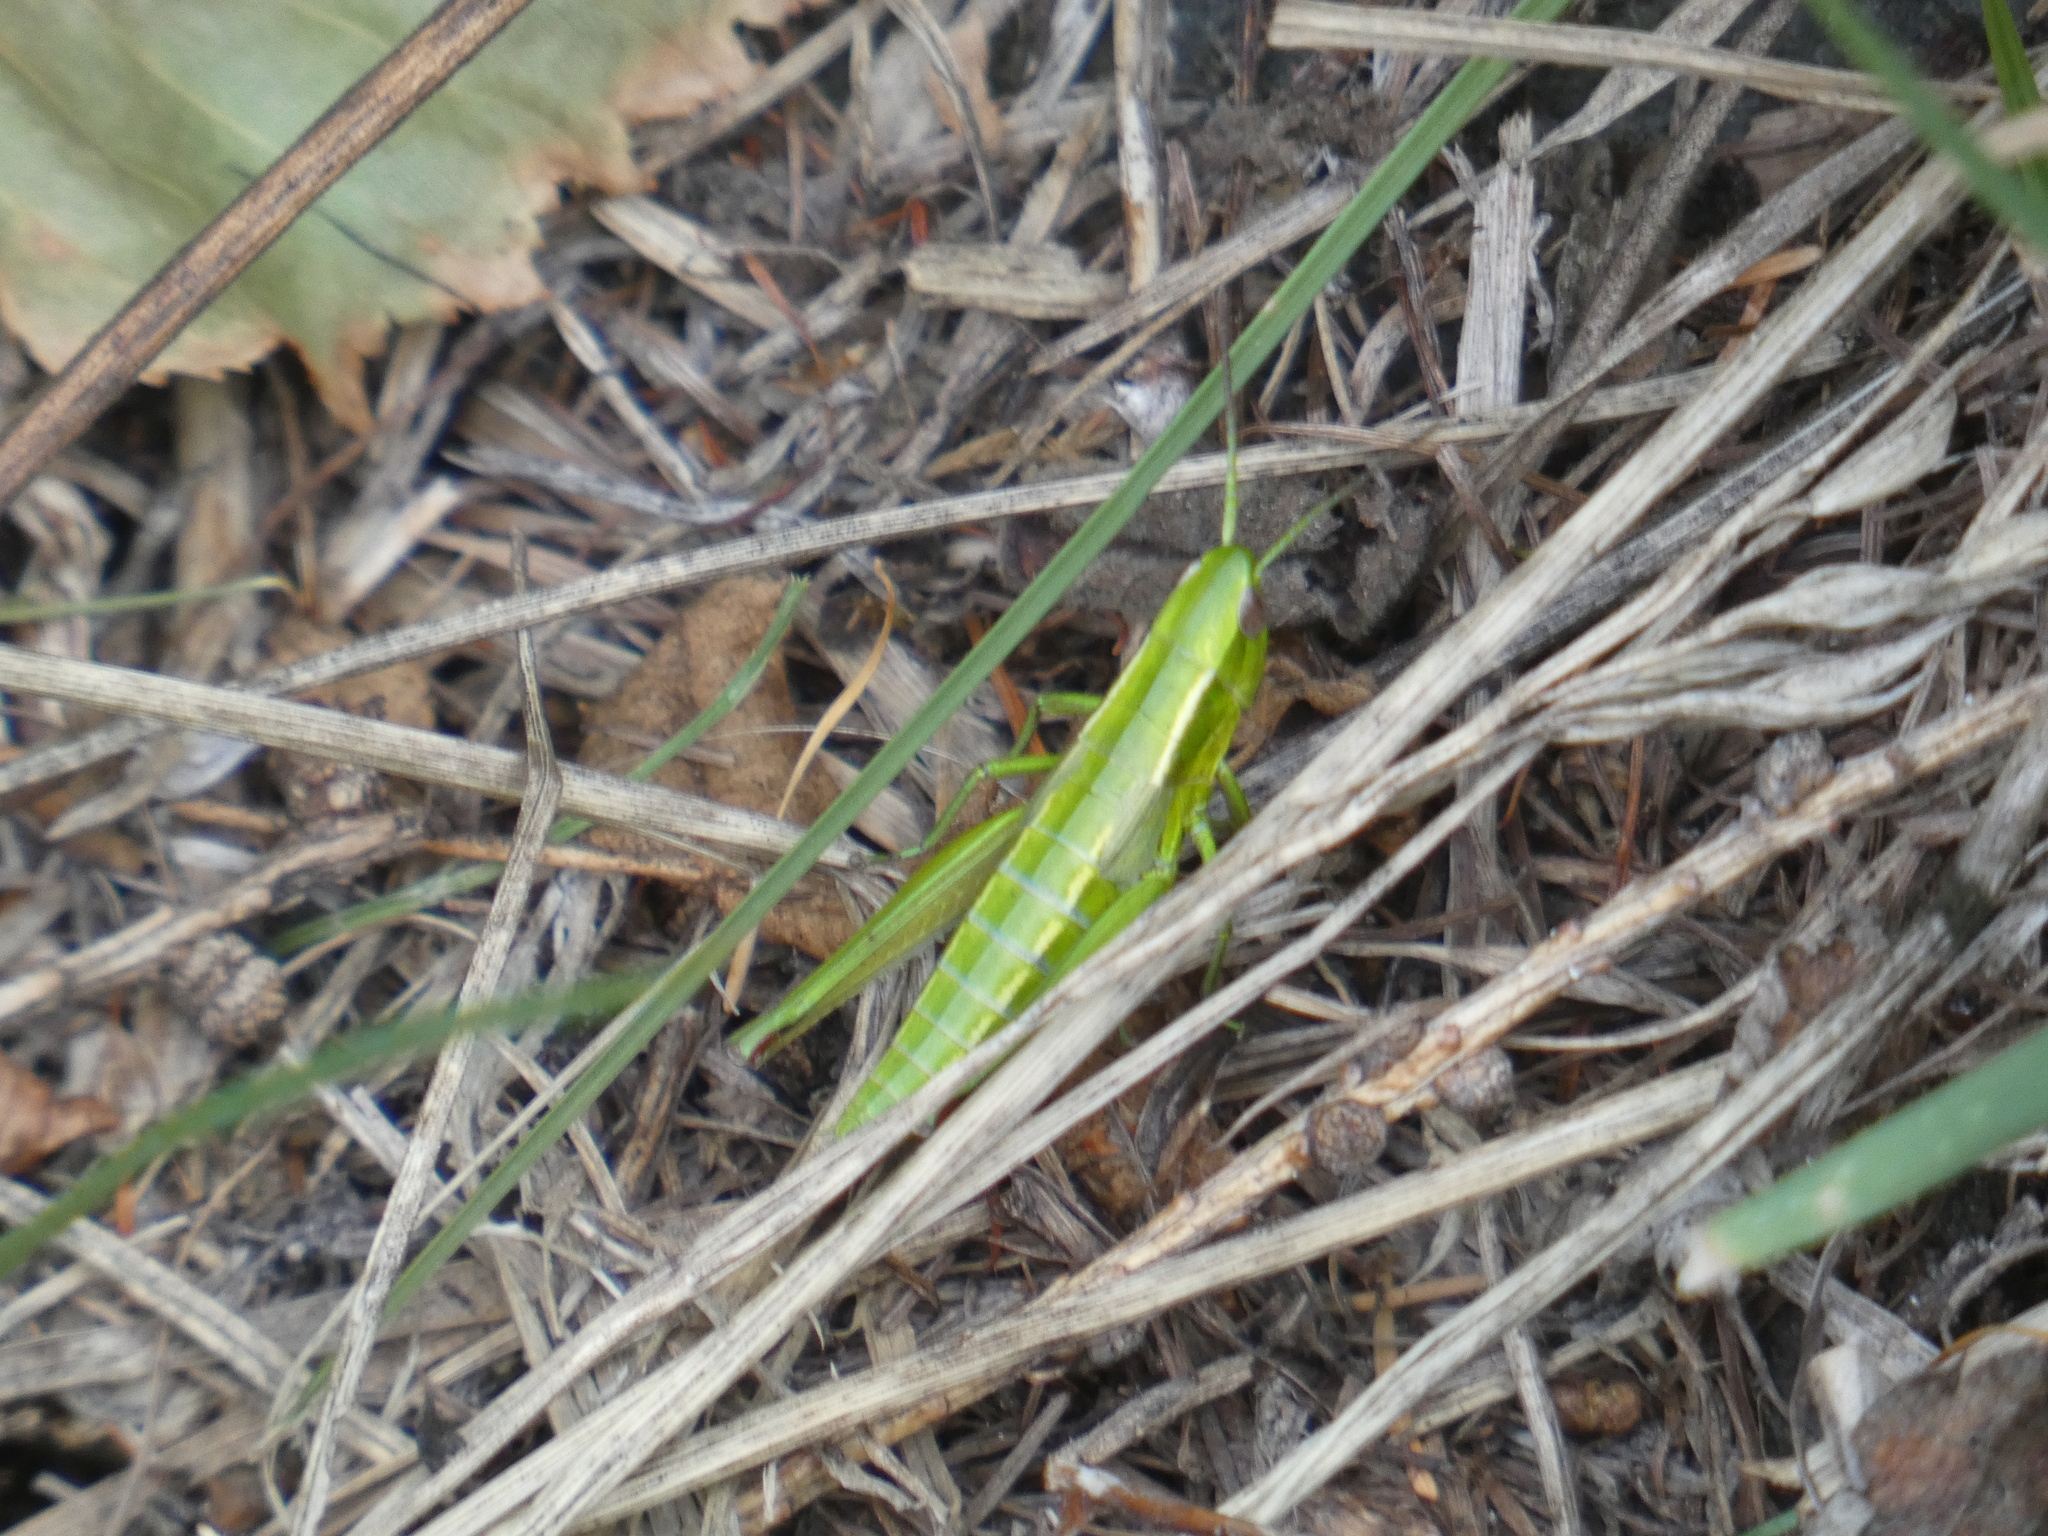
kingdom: Animalia
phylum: Arthropoda
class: Insecta
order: Orthoptera
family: Acrididae
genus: Euthystira
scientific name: Euthystira brachyptera
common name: Small gold grasshopper
